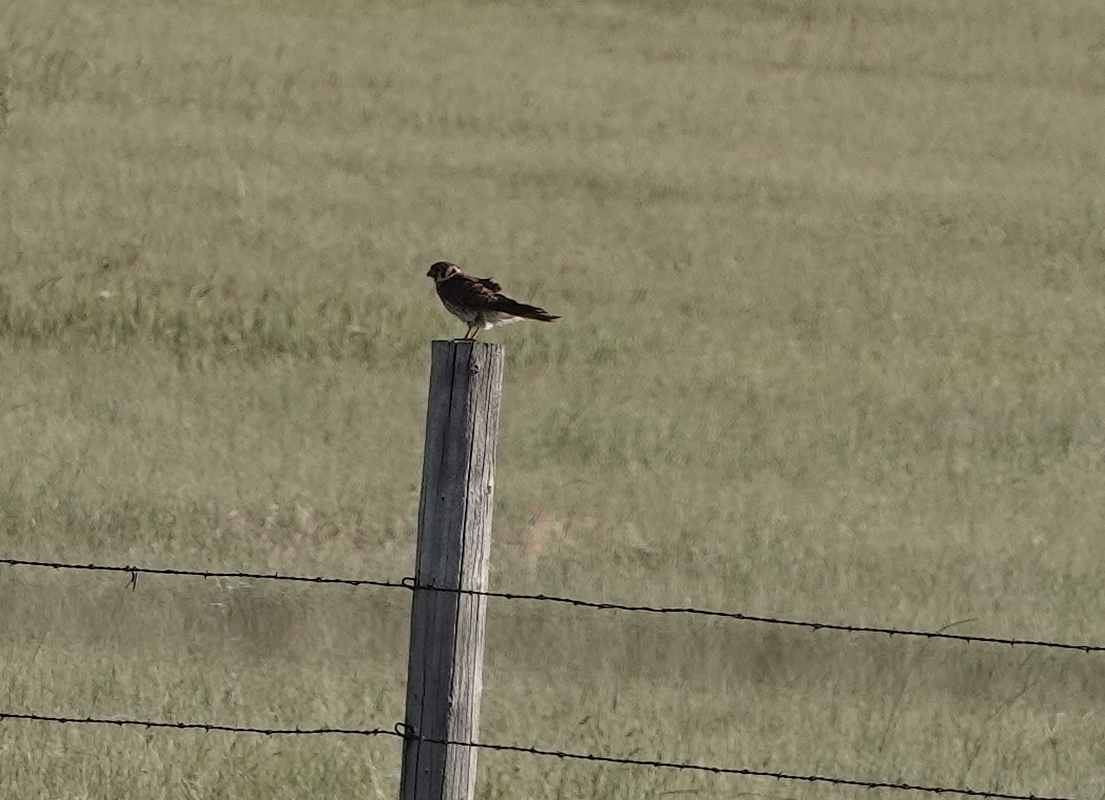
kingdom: Animalia
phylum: Chordata
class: Aves
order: Falconiformes
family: Falconidae
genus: Falco
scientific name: Falco sparverius
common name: American kestrel
